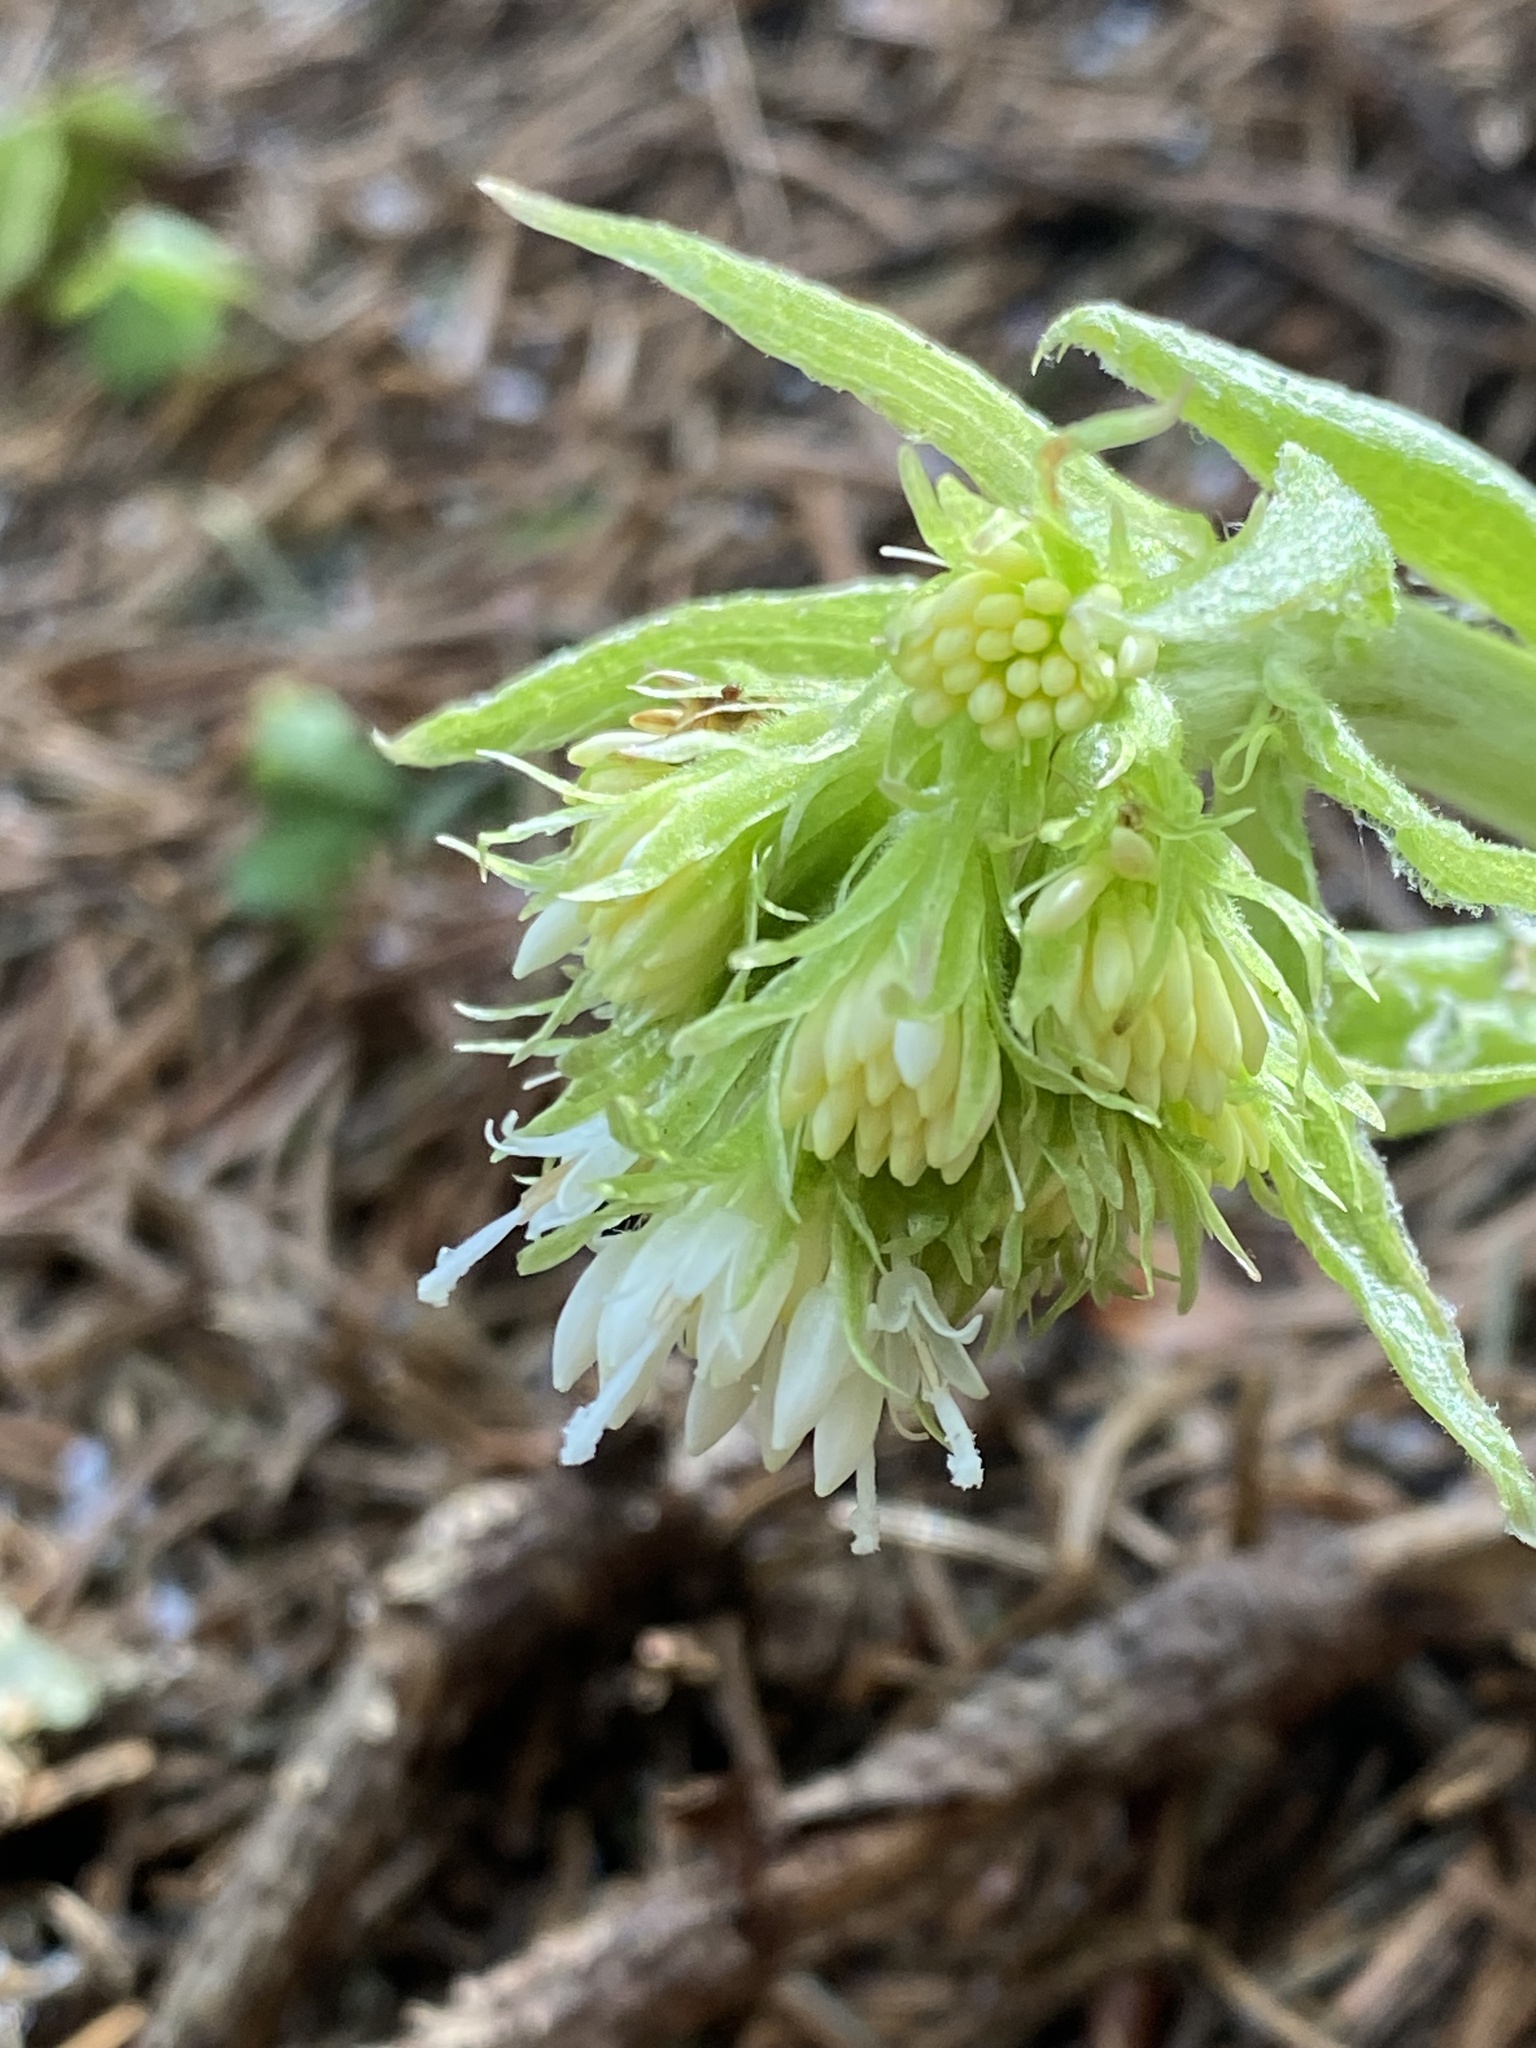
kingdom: Plantae
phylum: Tracheophyta
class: Magnoliopsida
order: Asterales
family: Asteraceae
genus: Petasites
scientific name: Petasites albus
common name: White butterbur
